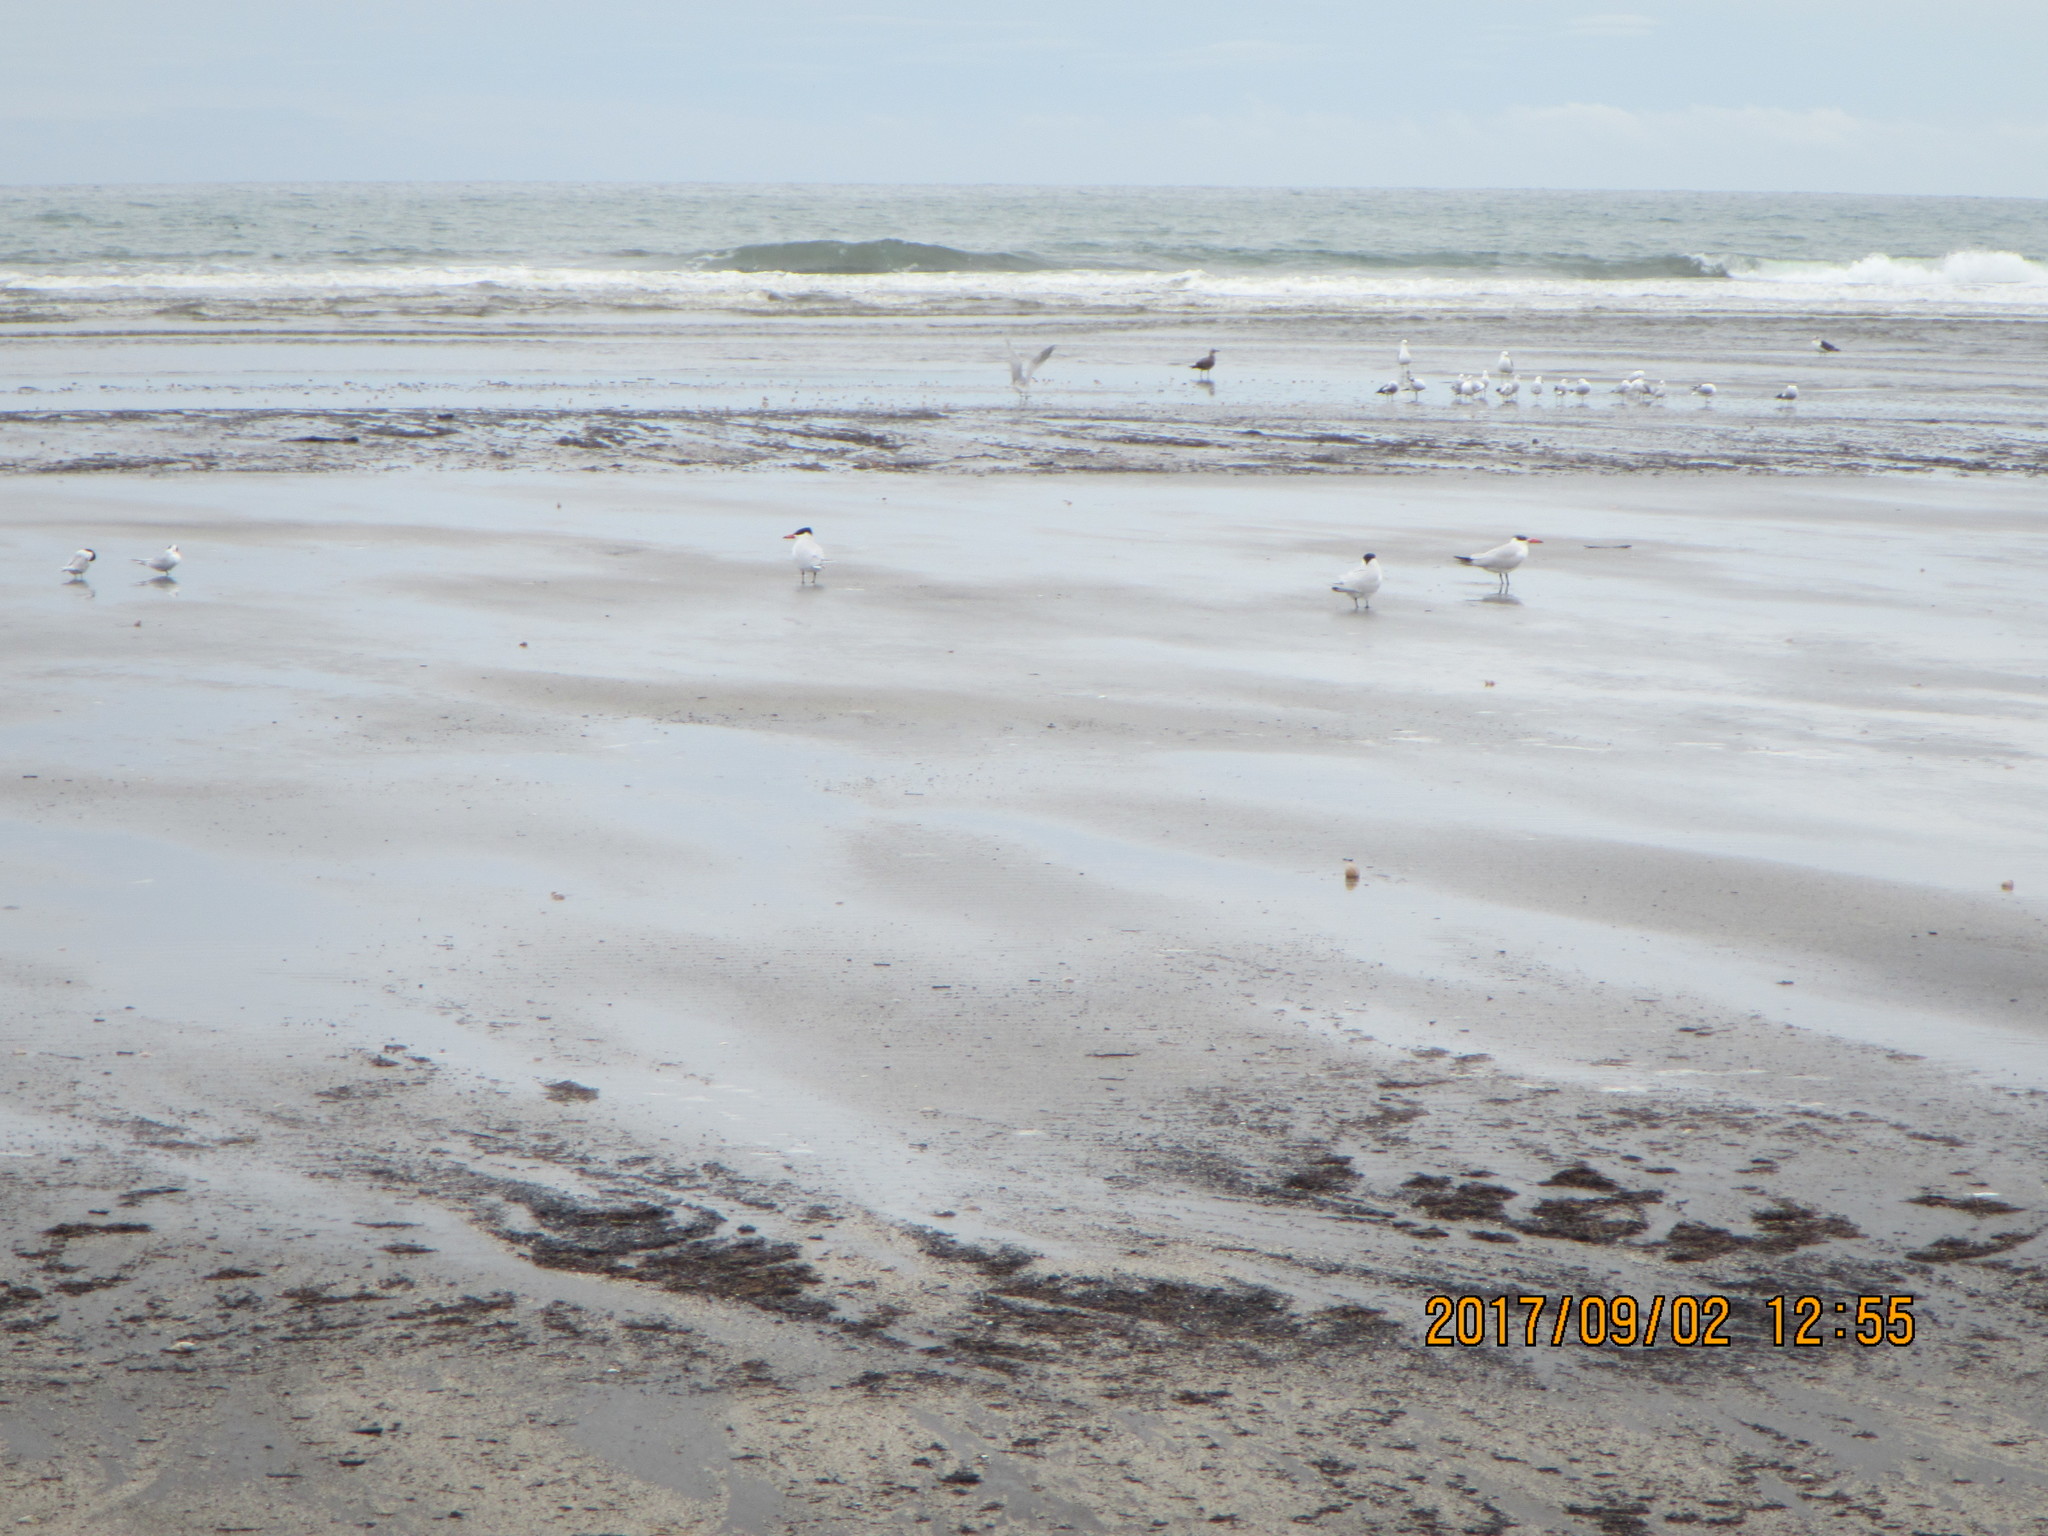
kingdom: Animalia
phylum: Chordata
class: Aves
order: Charadriiformes
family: Laridae
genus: Hydroprogne
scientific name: Hydroprogne caspia
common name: Caspian tern
